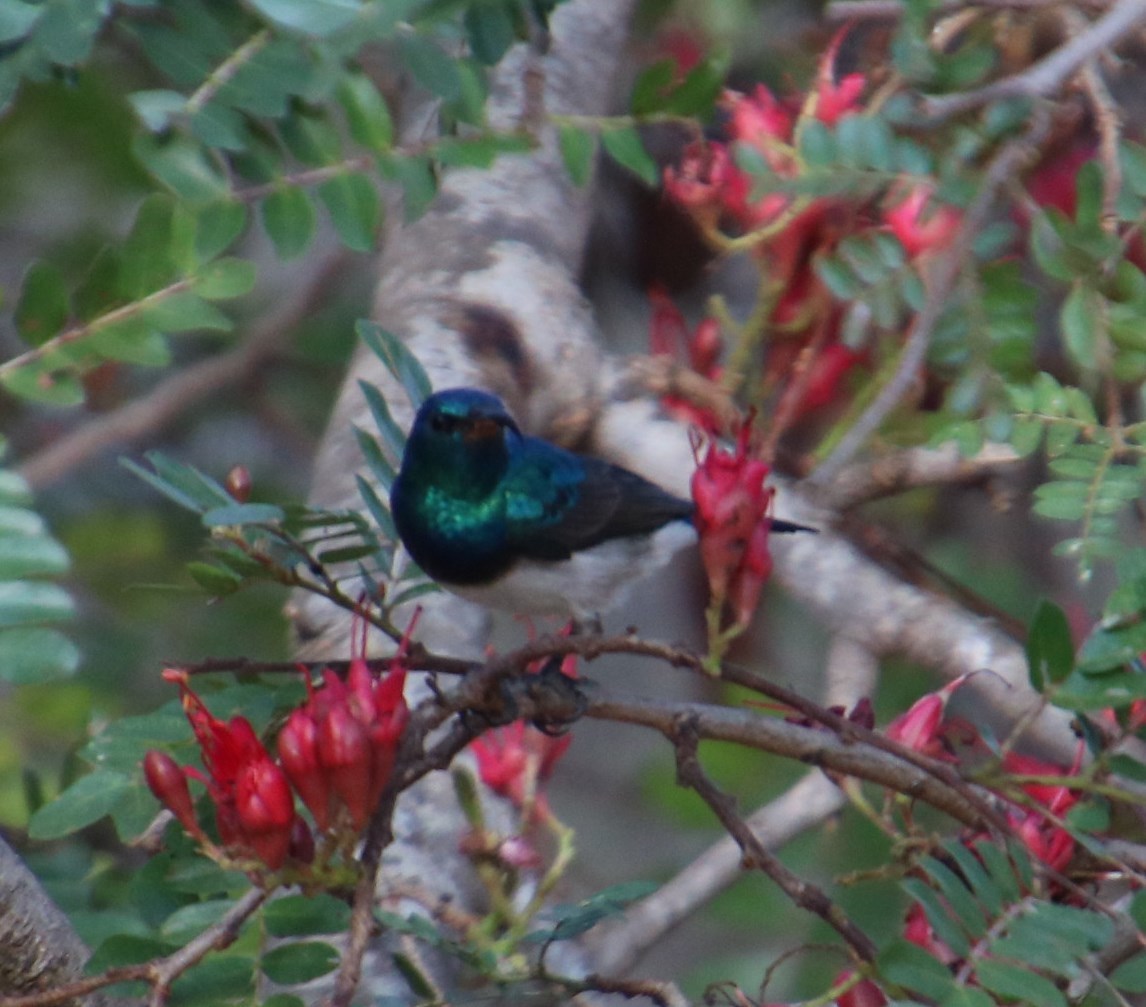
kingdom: Animalia
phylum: Chordata
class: Aves
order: Passeriformes
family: Nectariniidae
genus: Cinnyris
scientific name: Cinnyris talatala
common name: White-bellied sunbird
